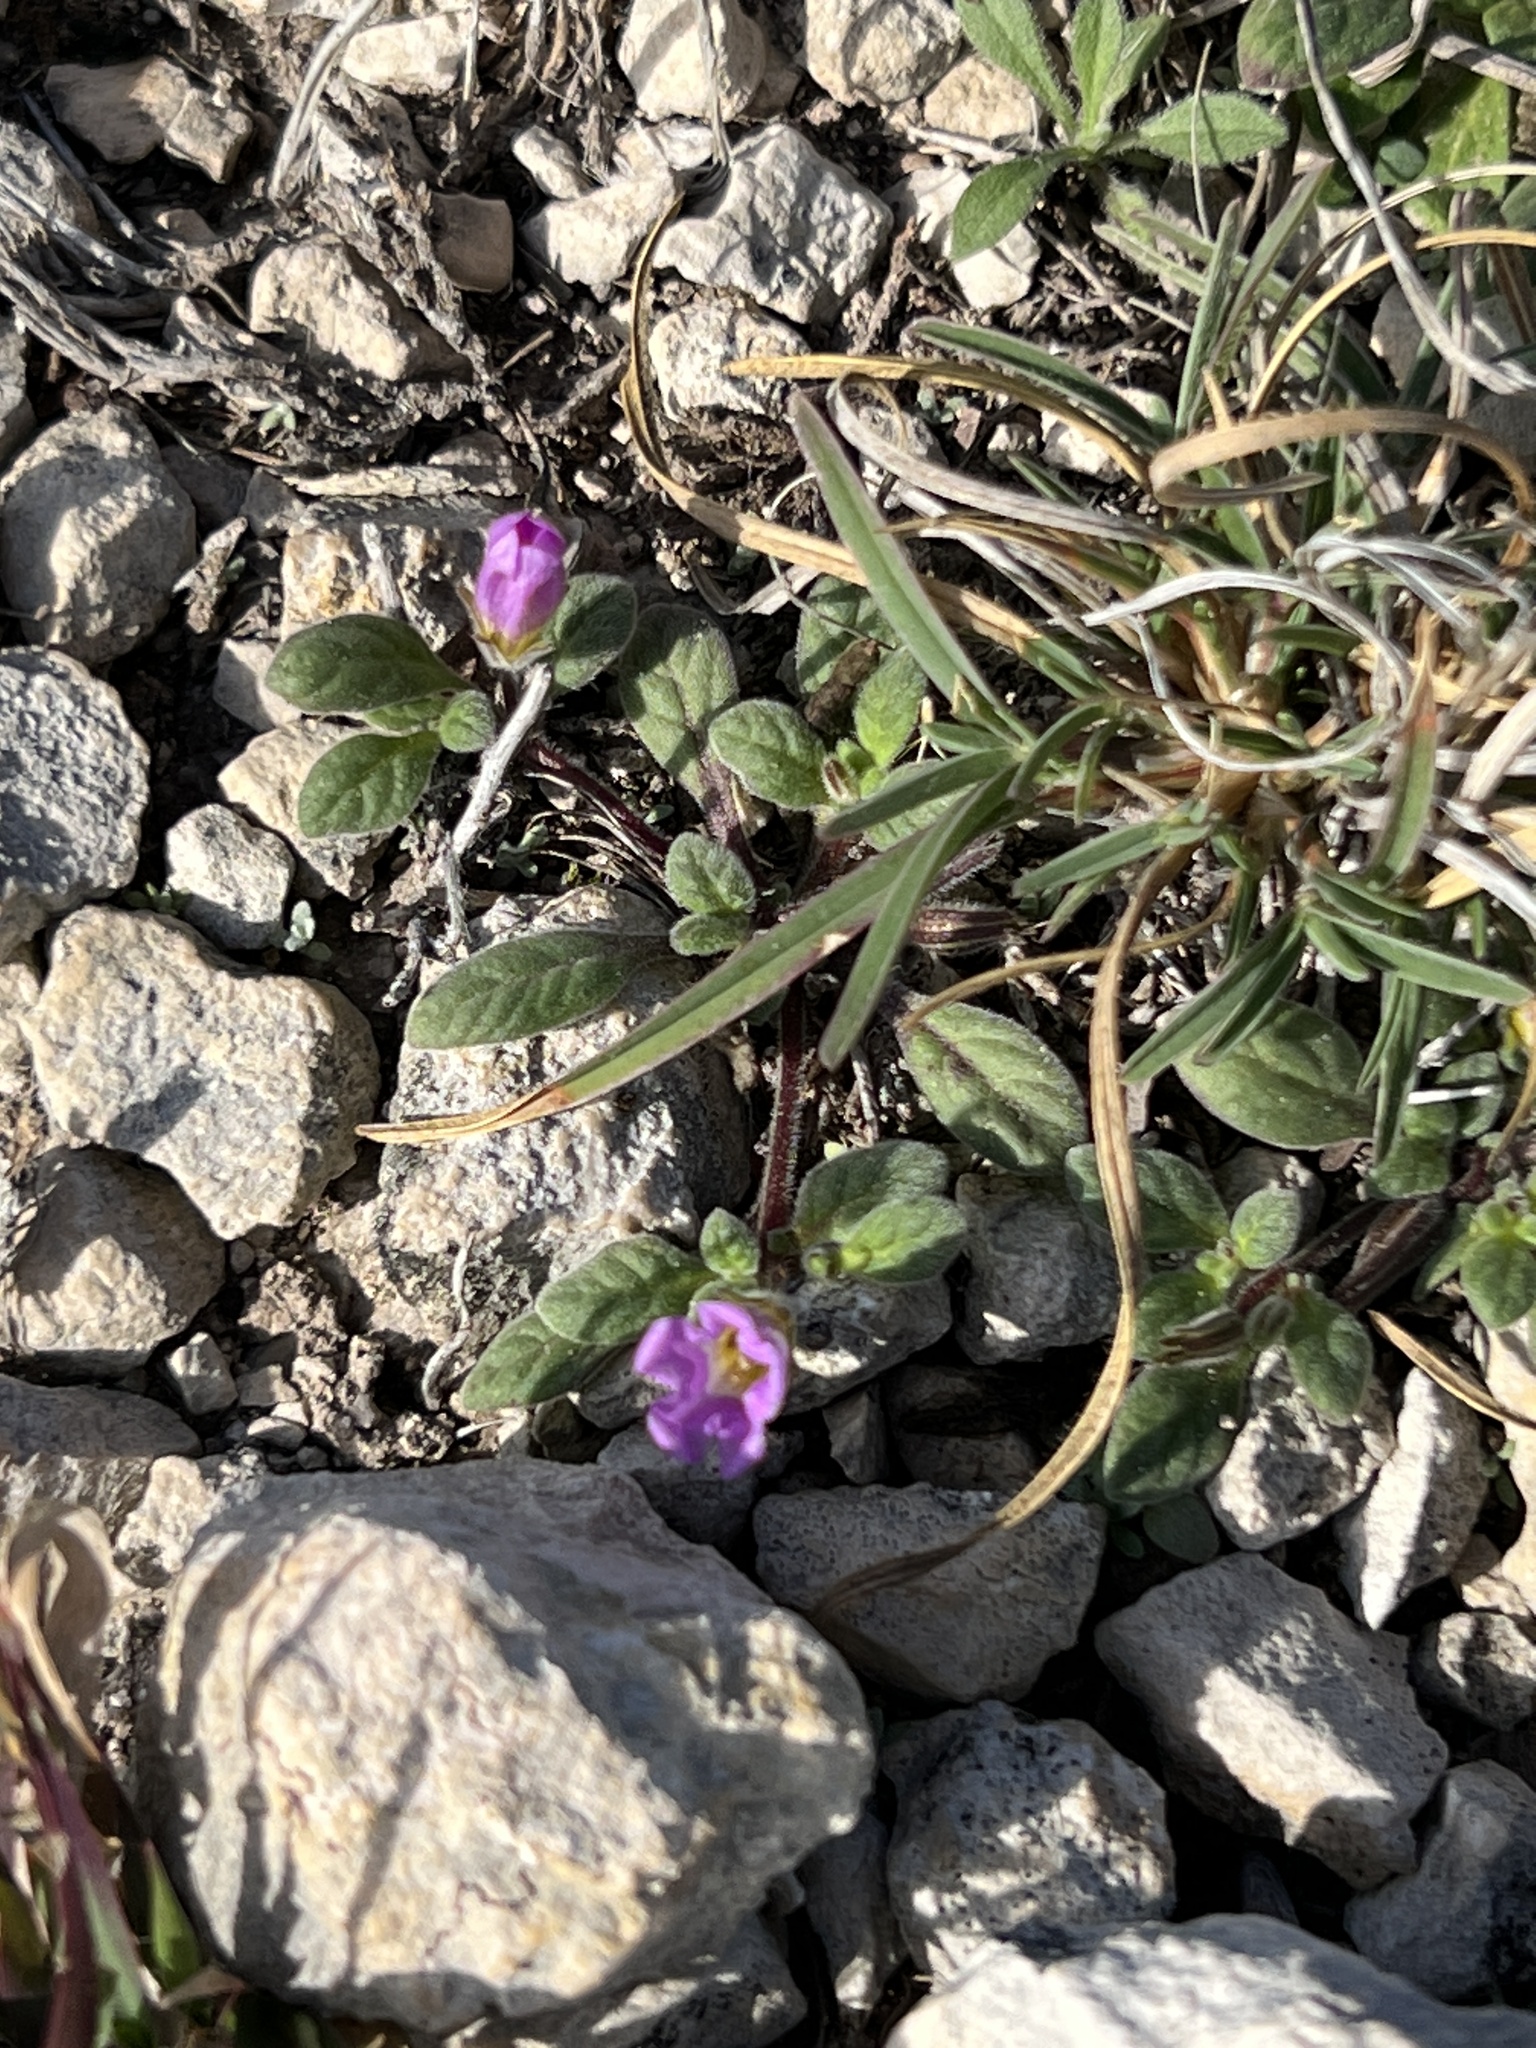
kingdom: Plantae
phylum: Tracheophyta
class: Magnoliopsida
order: Boraginales
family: Namaceae
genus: Nama
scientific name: Nama hispida
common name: Bristly nama
